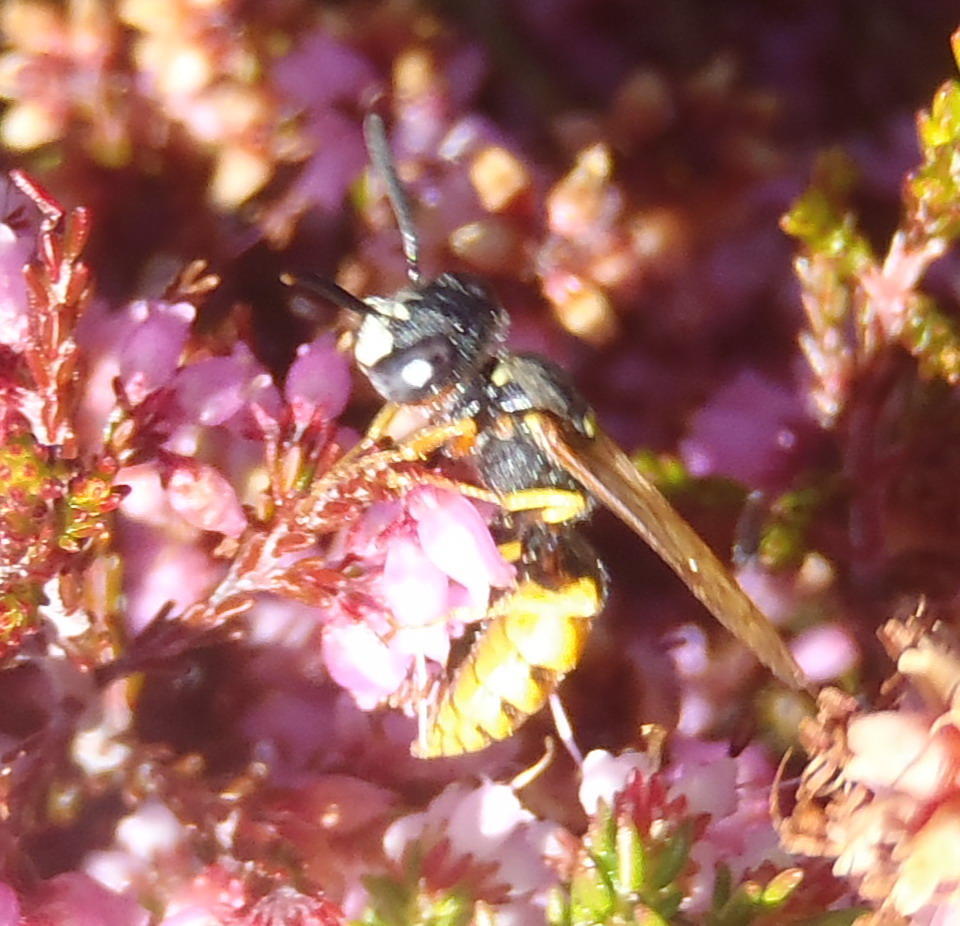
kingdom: Animalia
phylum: Arthropoda
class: Insecta
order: Hymenoptera
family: Crabronidae
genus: Philanthus
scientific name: Philanthus triangulum
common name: Bee wolf
